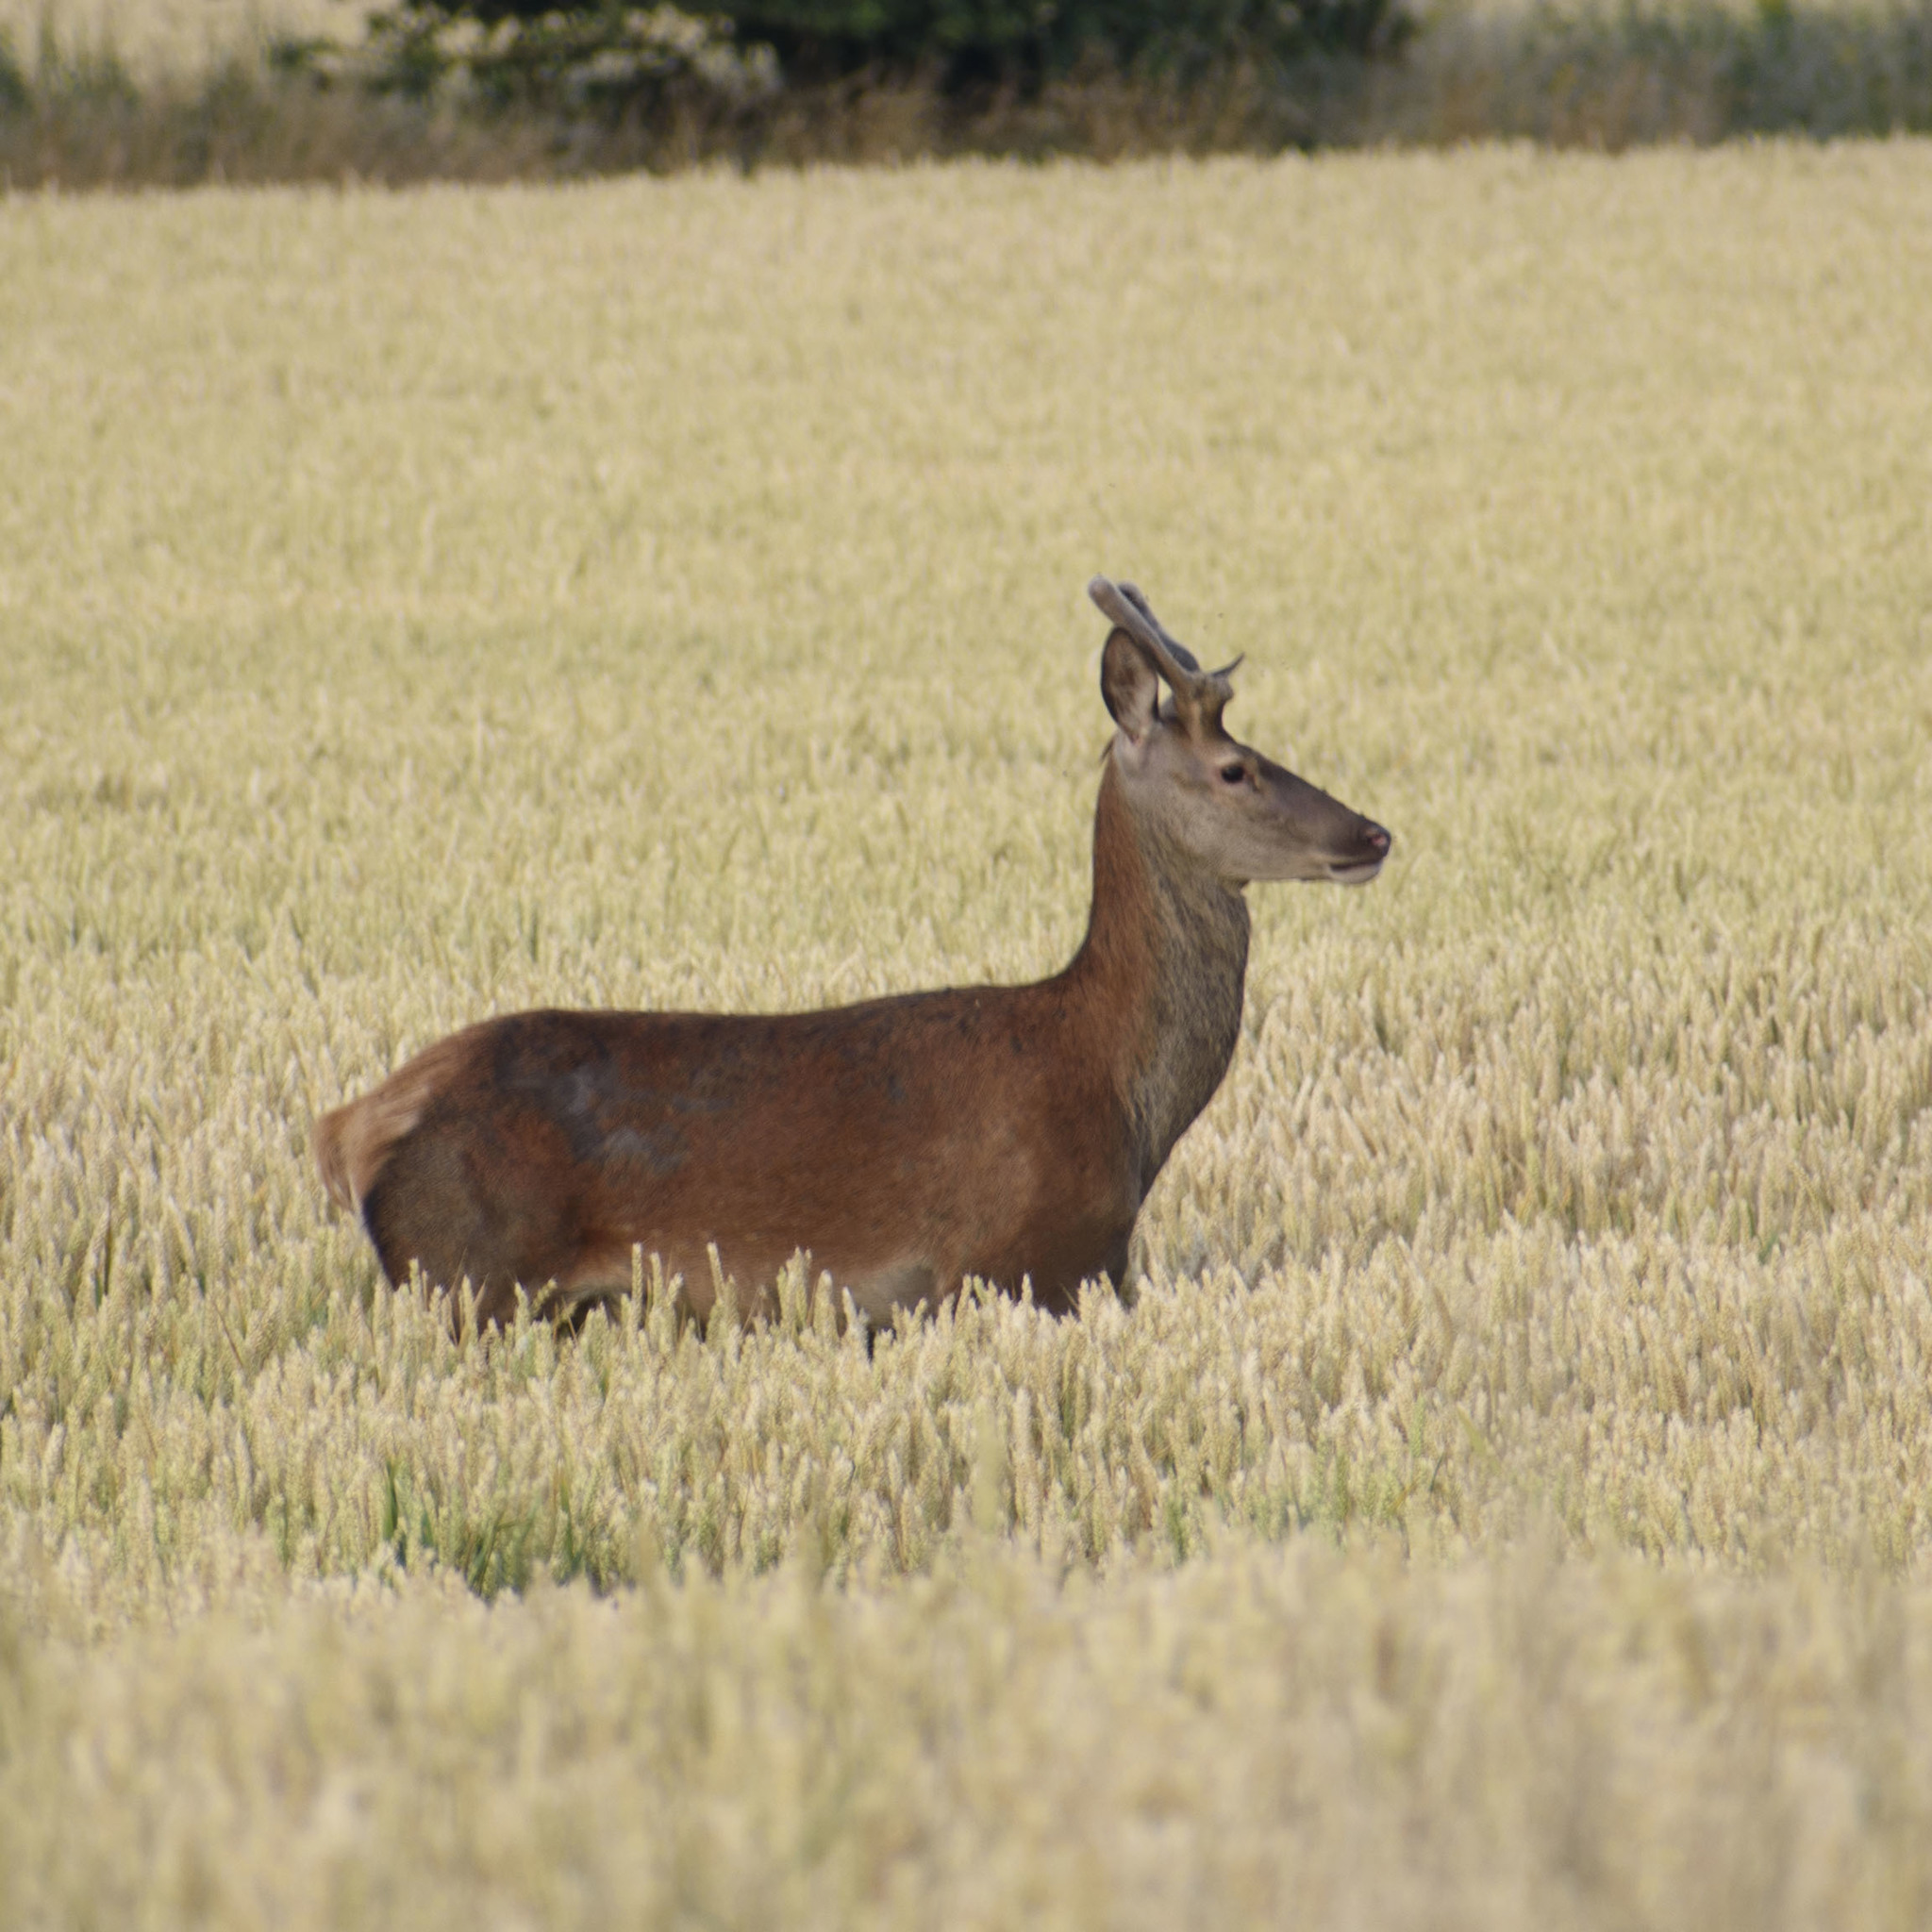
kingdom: Animalia
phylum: Chordata
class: Mammalia
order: Artiodactyla
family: Cervidae
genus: Cervus
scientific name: Cervus elaphus
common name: Red deer
